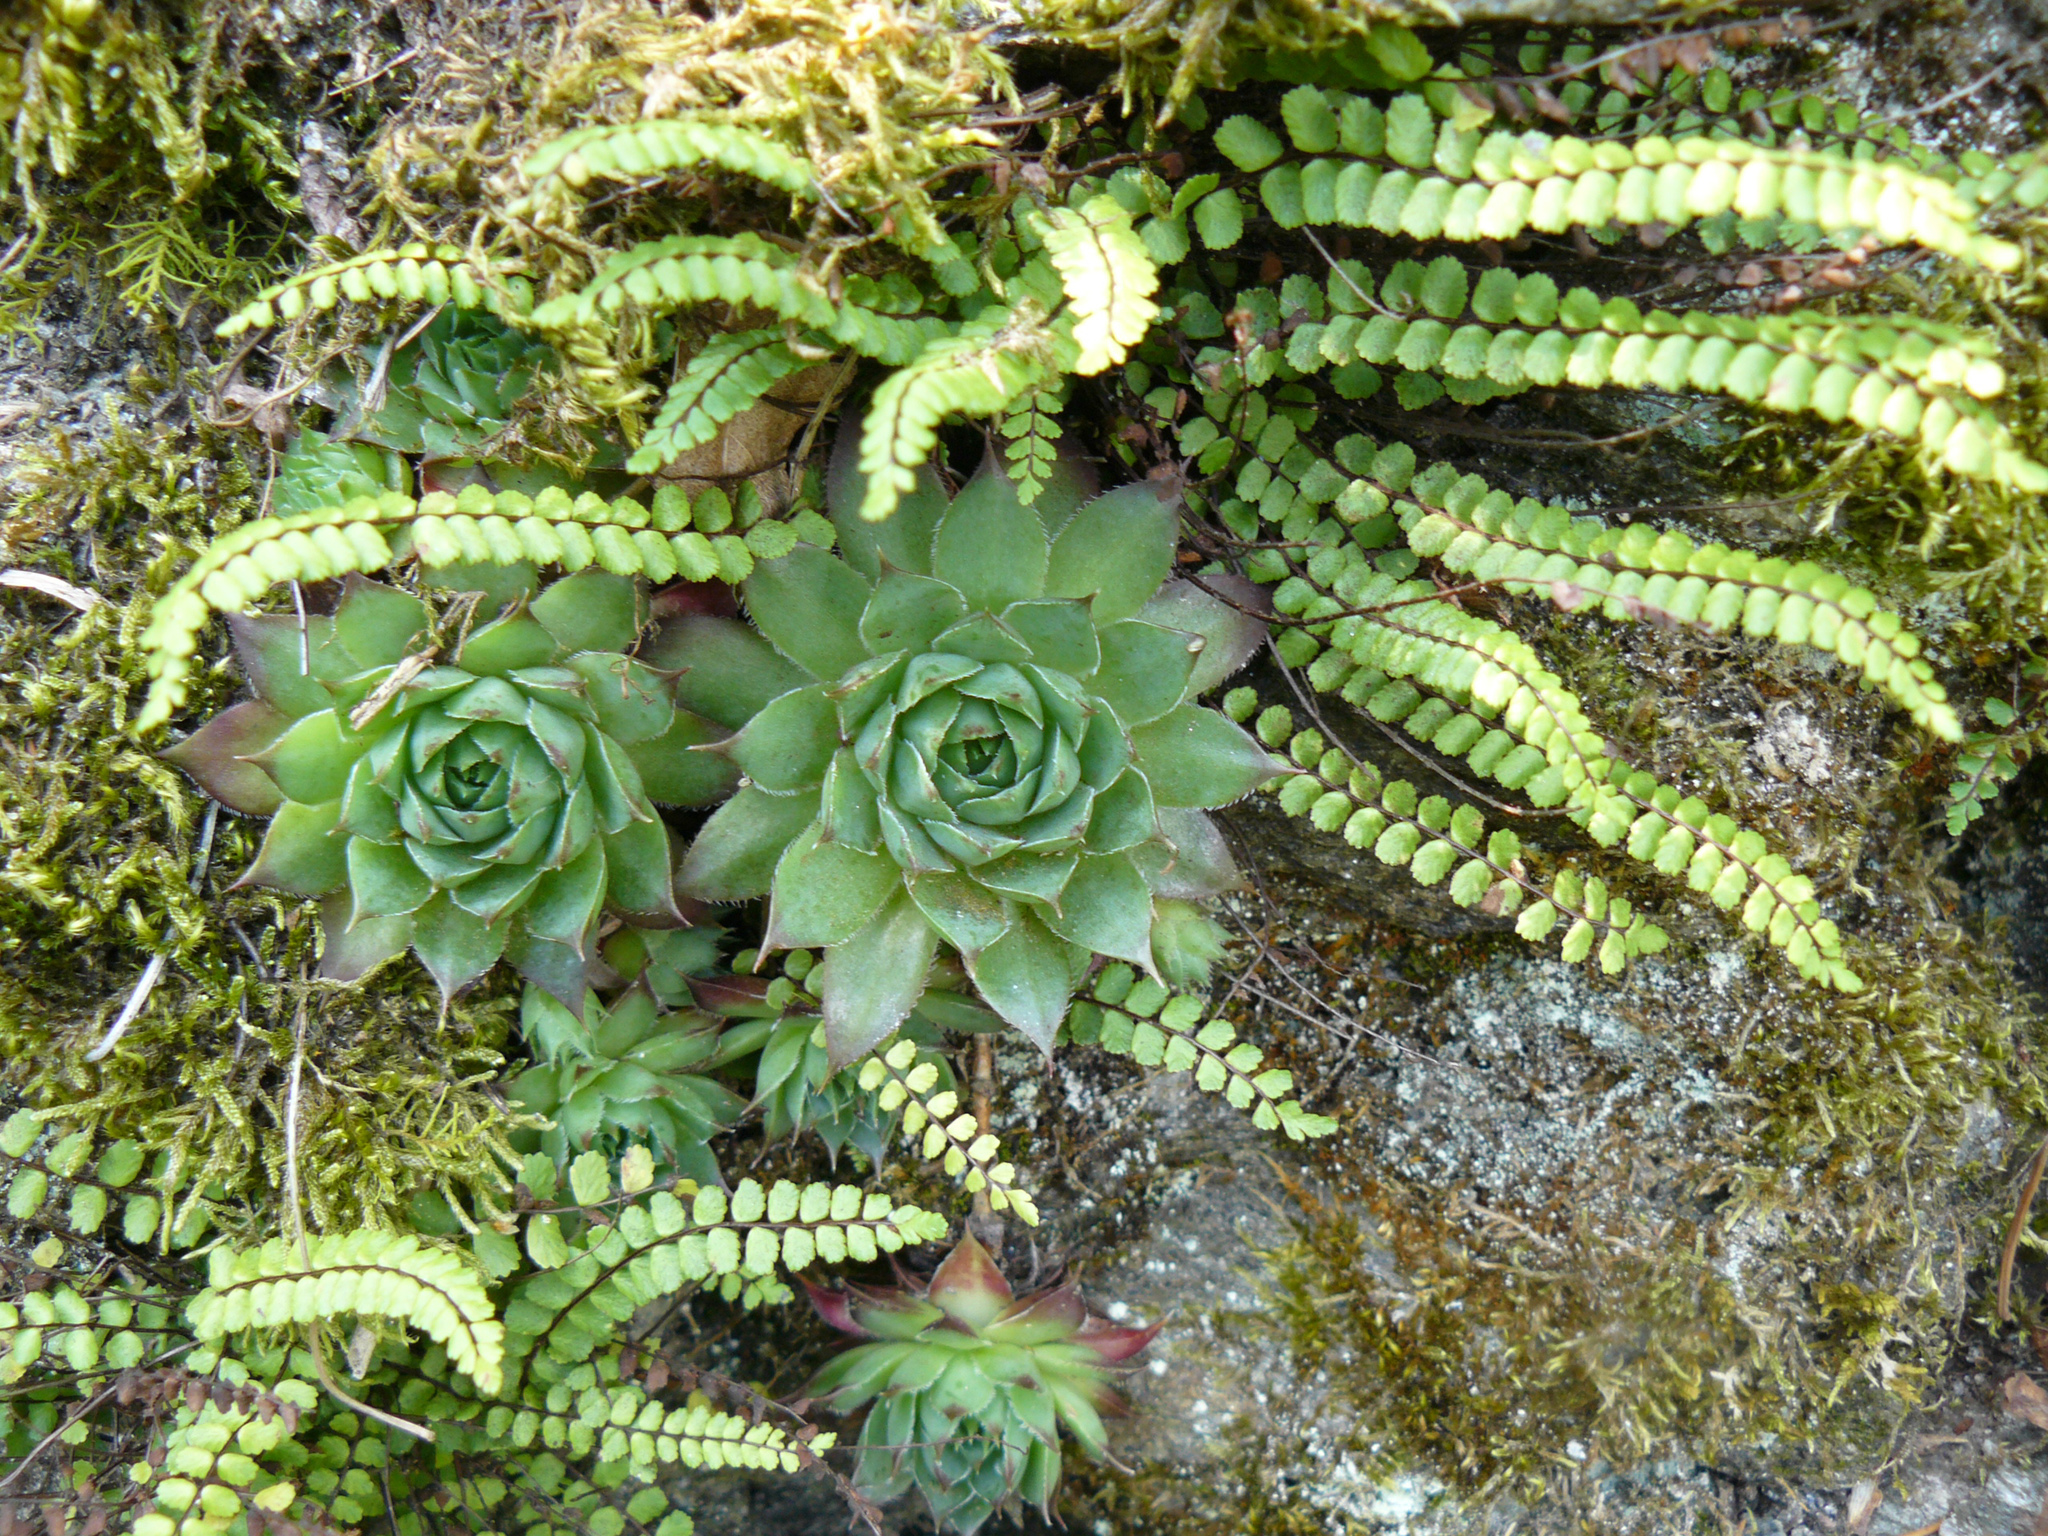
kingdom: Plantae
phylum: Tracheophyta
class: Magnoliopsida
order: Saxifragales
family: Crassulaceae
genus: Sempervivum
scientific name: Sempervivum tectorum
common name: House-leek
